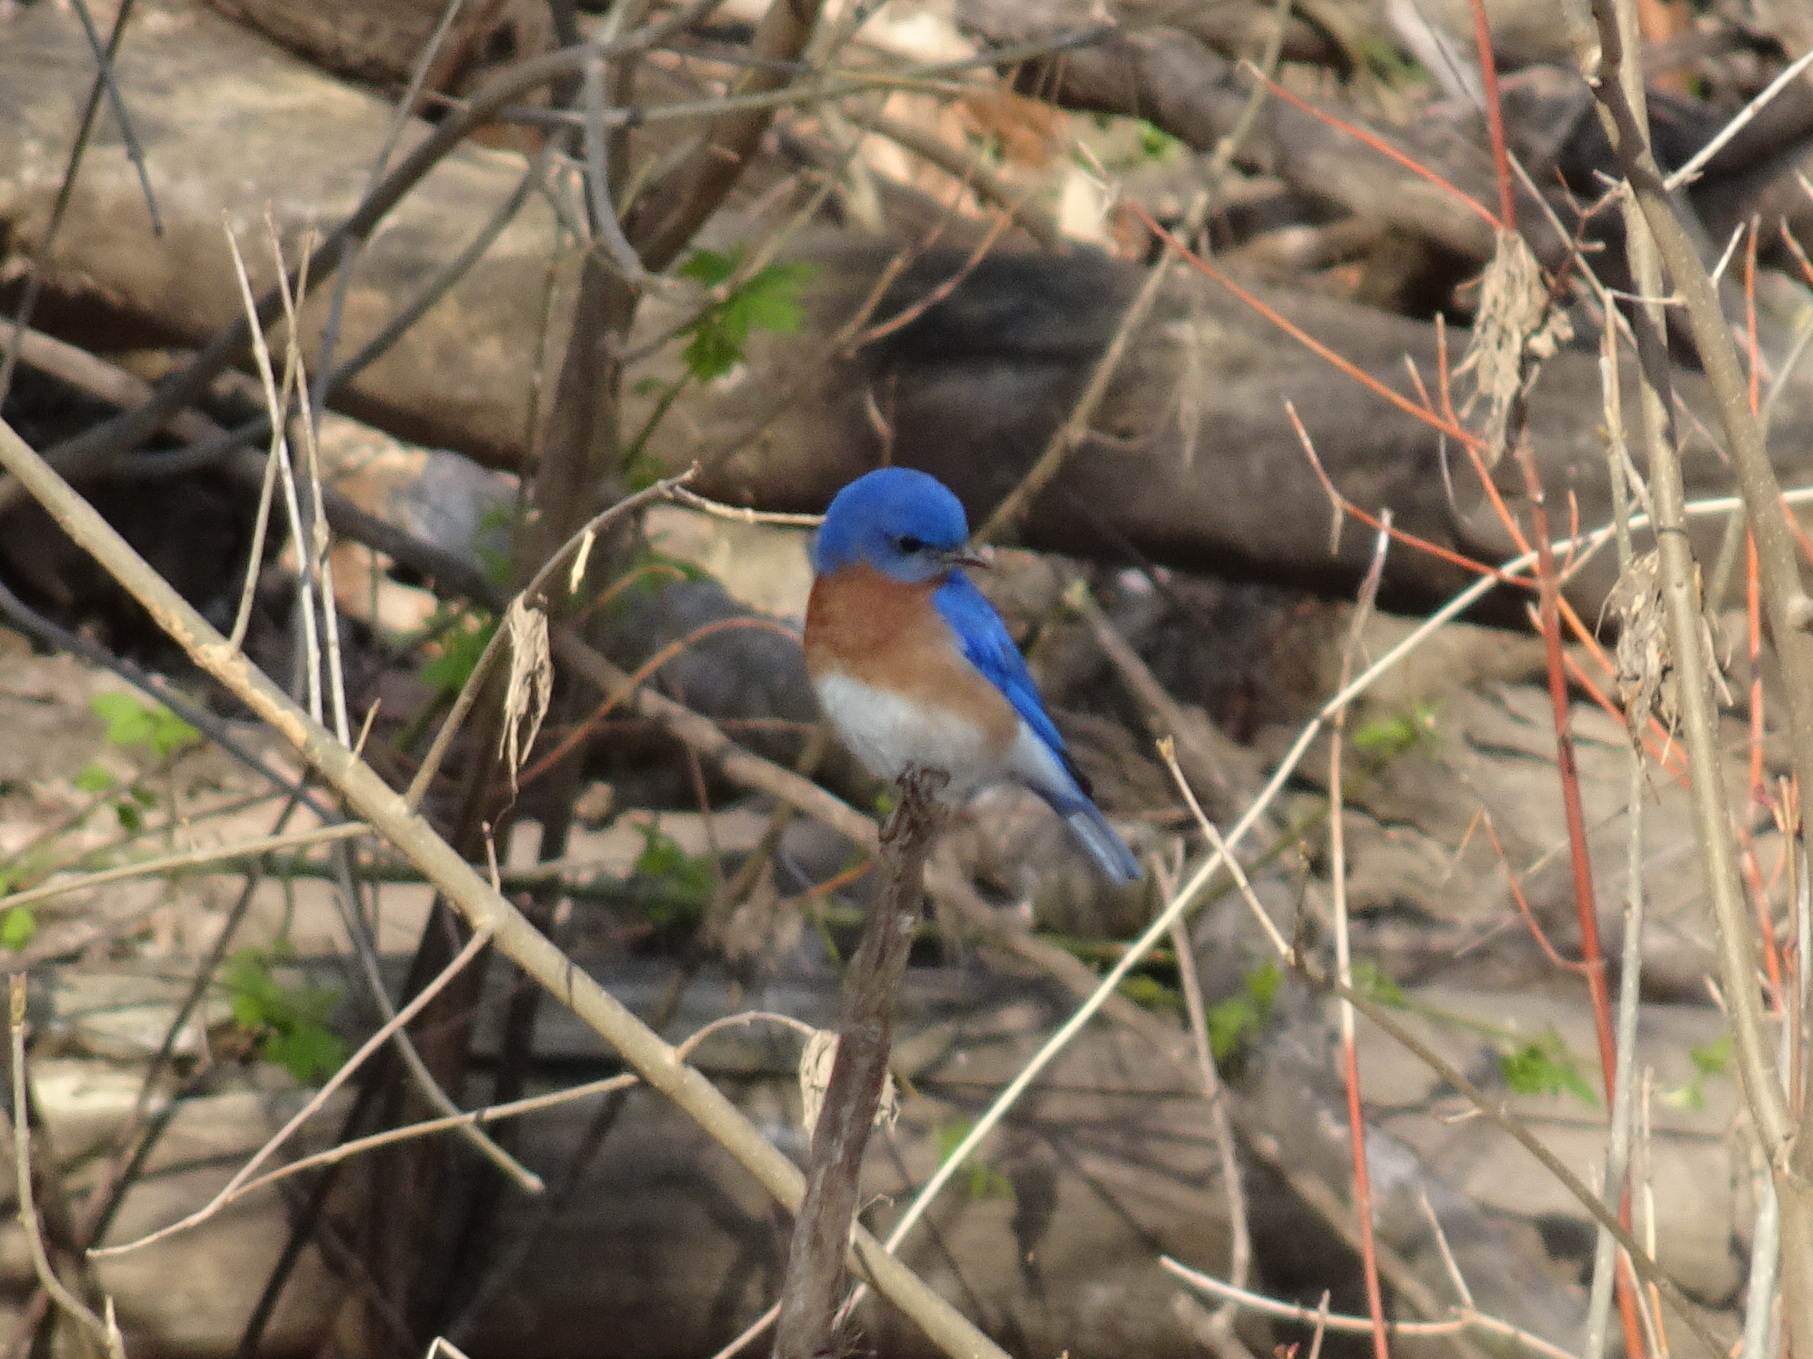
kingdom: Animalia
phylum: Chordata
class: Aves
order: Passeriformes
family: Turdidae
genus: Sialia
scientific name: Sialia sialis
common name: Eastern bluebird
